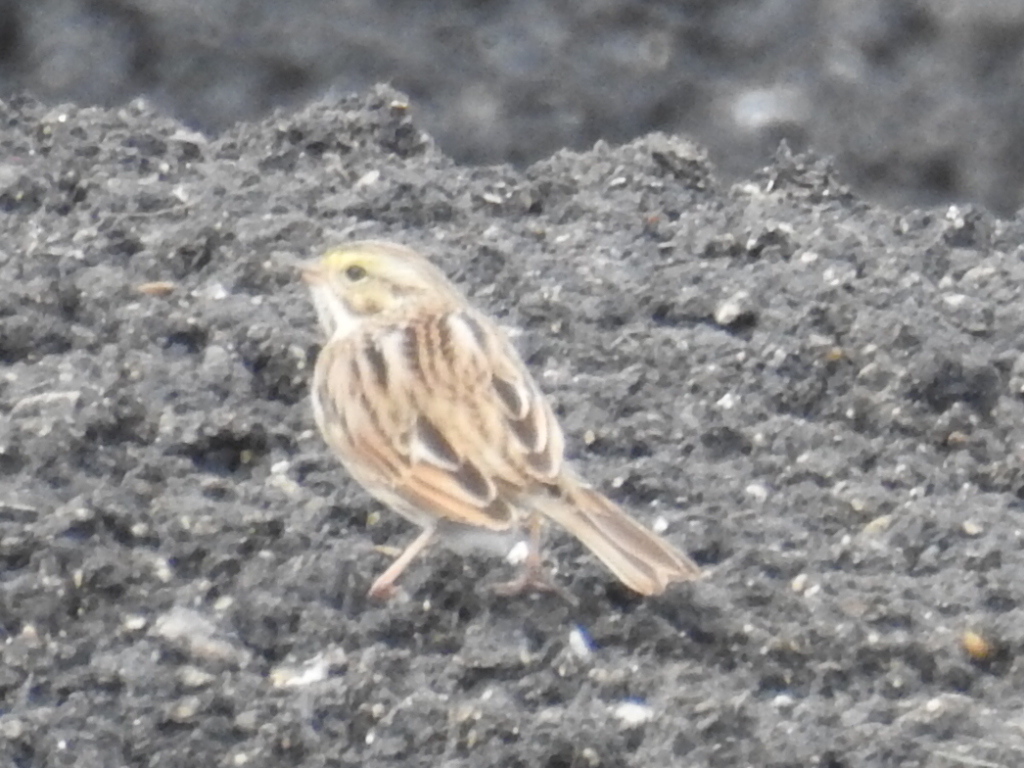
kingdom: Animalia
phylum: Chordata
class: Aves
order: Passeriformes
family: Passerellidae
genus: Passerculus
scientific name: Passerculus sandwichensis
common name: Savannah sparrow
